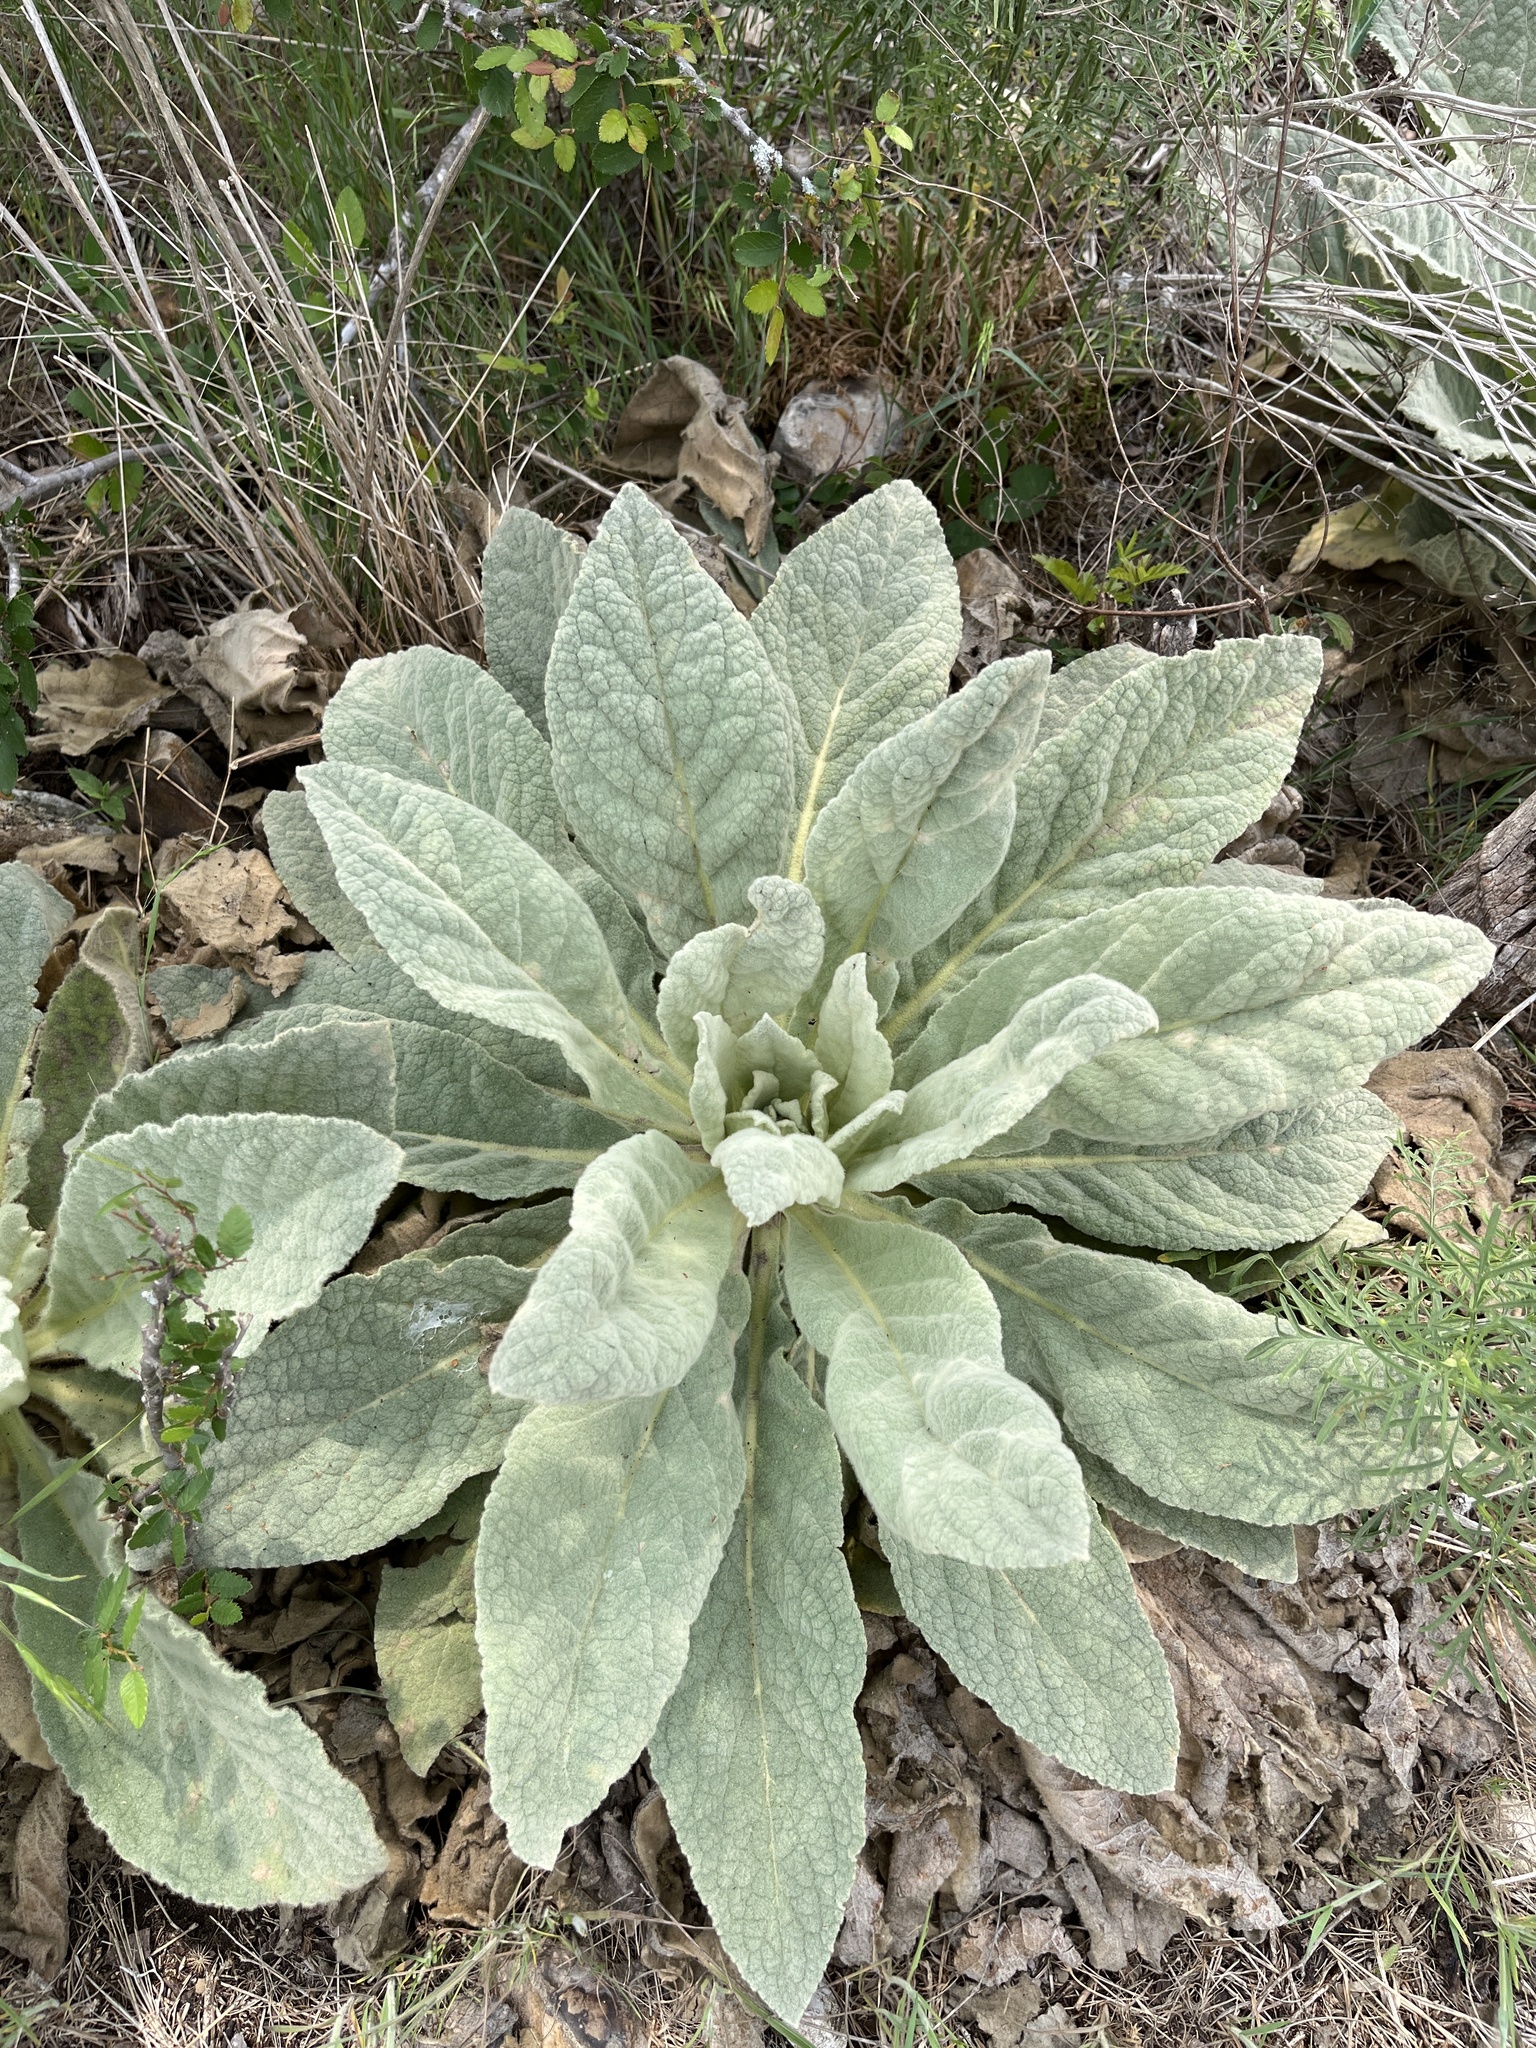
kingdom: Plantae
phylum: Tracheophyta
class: Magnoliopsida
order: Lamiales
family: Scrophulariaceae
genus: Verbascum
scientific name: Verbascum thapsus
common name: Common mullein
